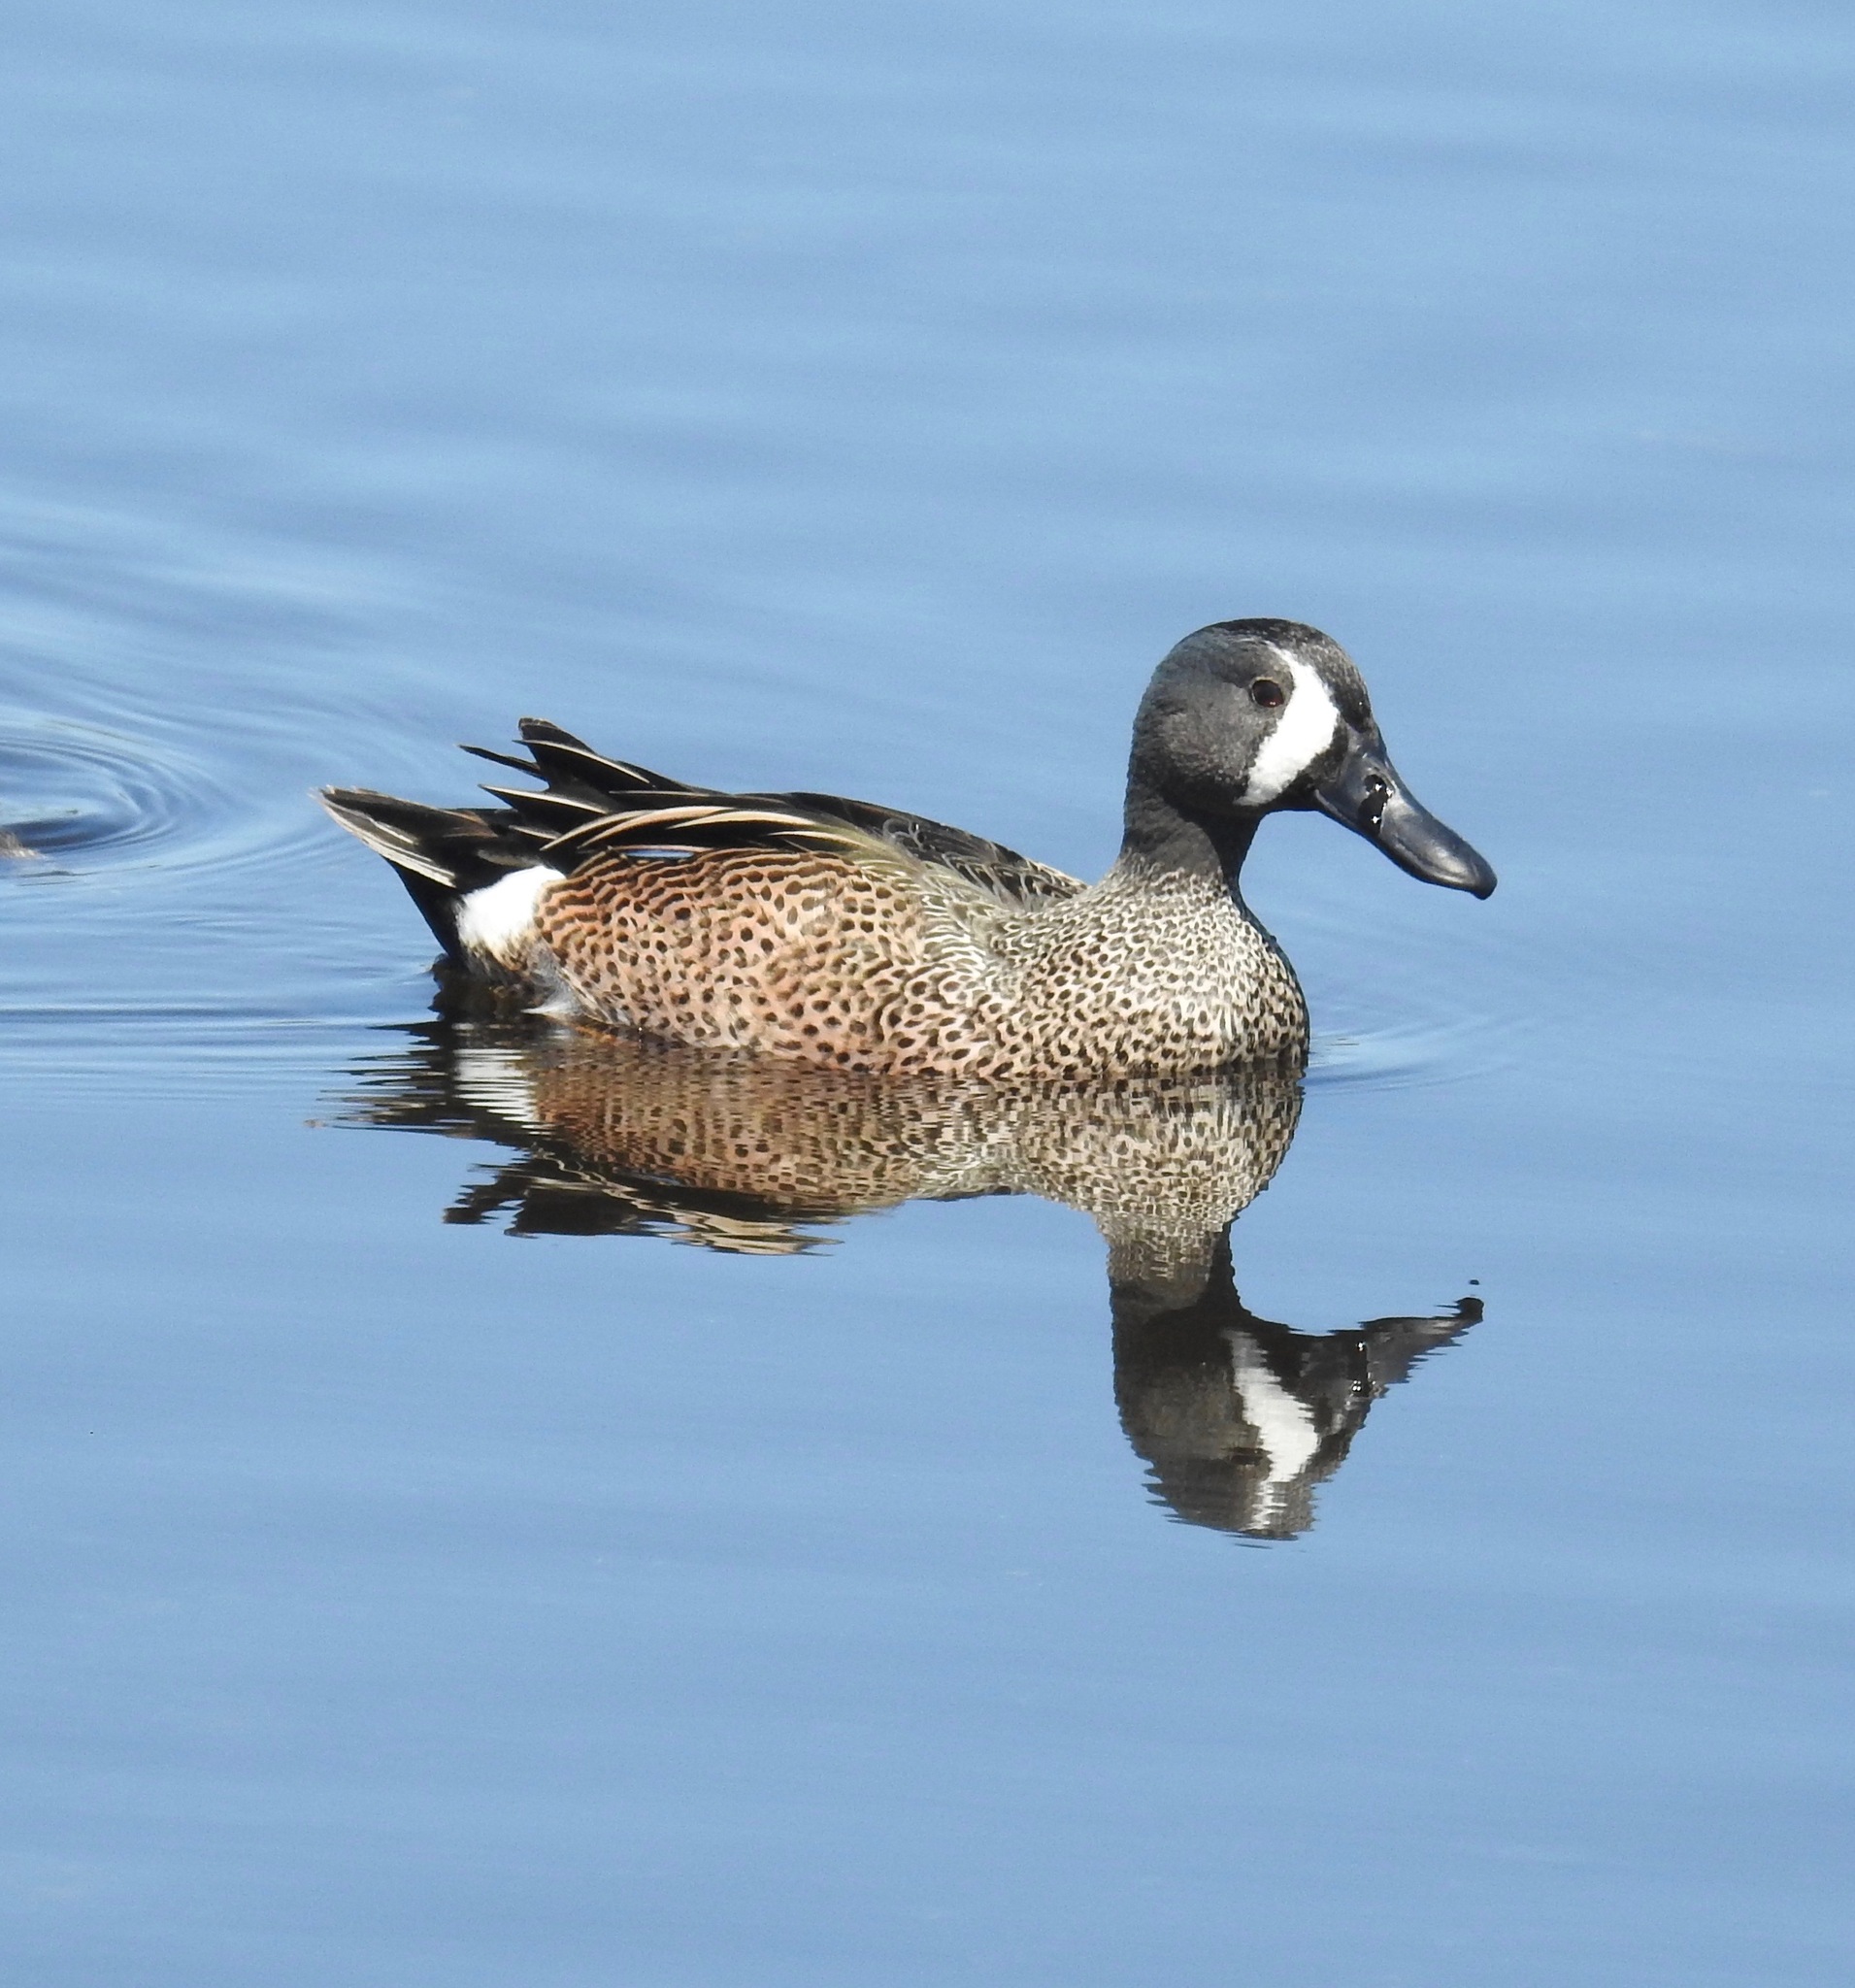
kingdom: Animalia
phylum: Chordata
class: Aves
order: Anseriformes
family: Anatidae
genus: Spatula
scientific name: Spatula discors
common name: Blue-winged teal
